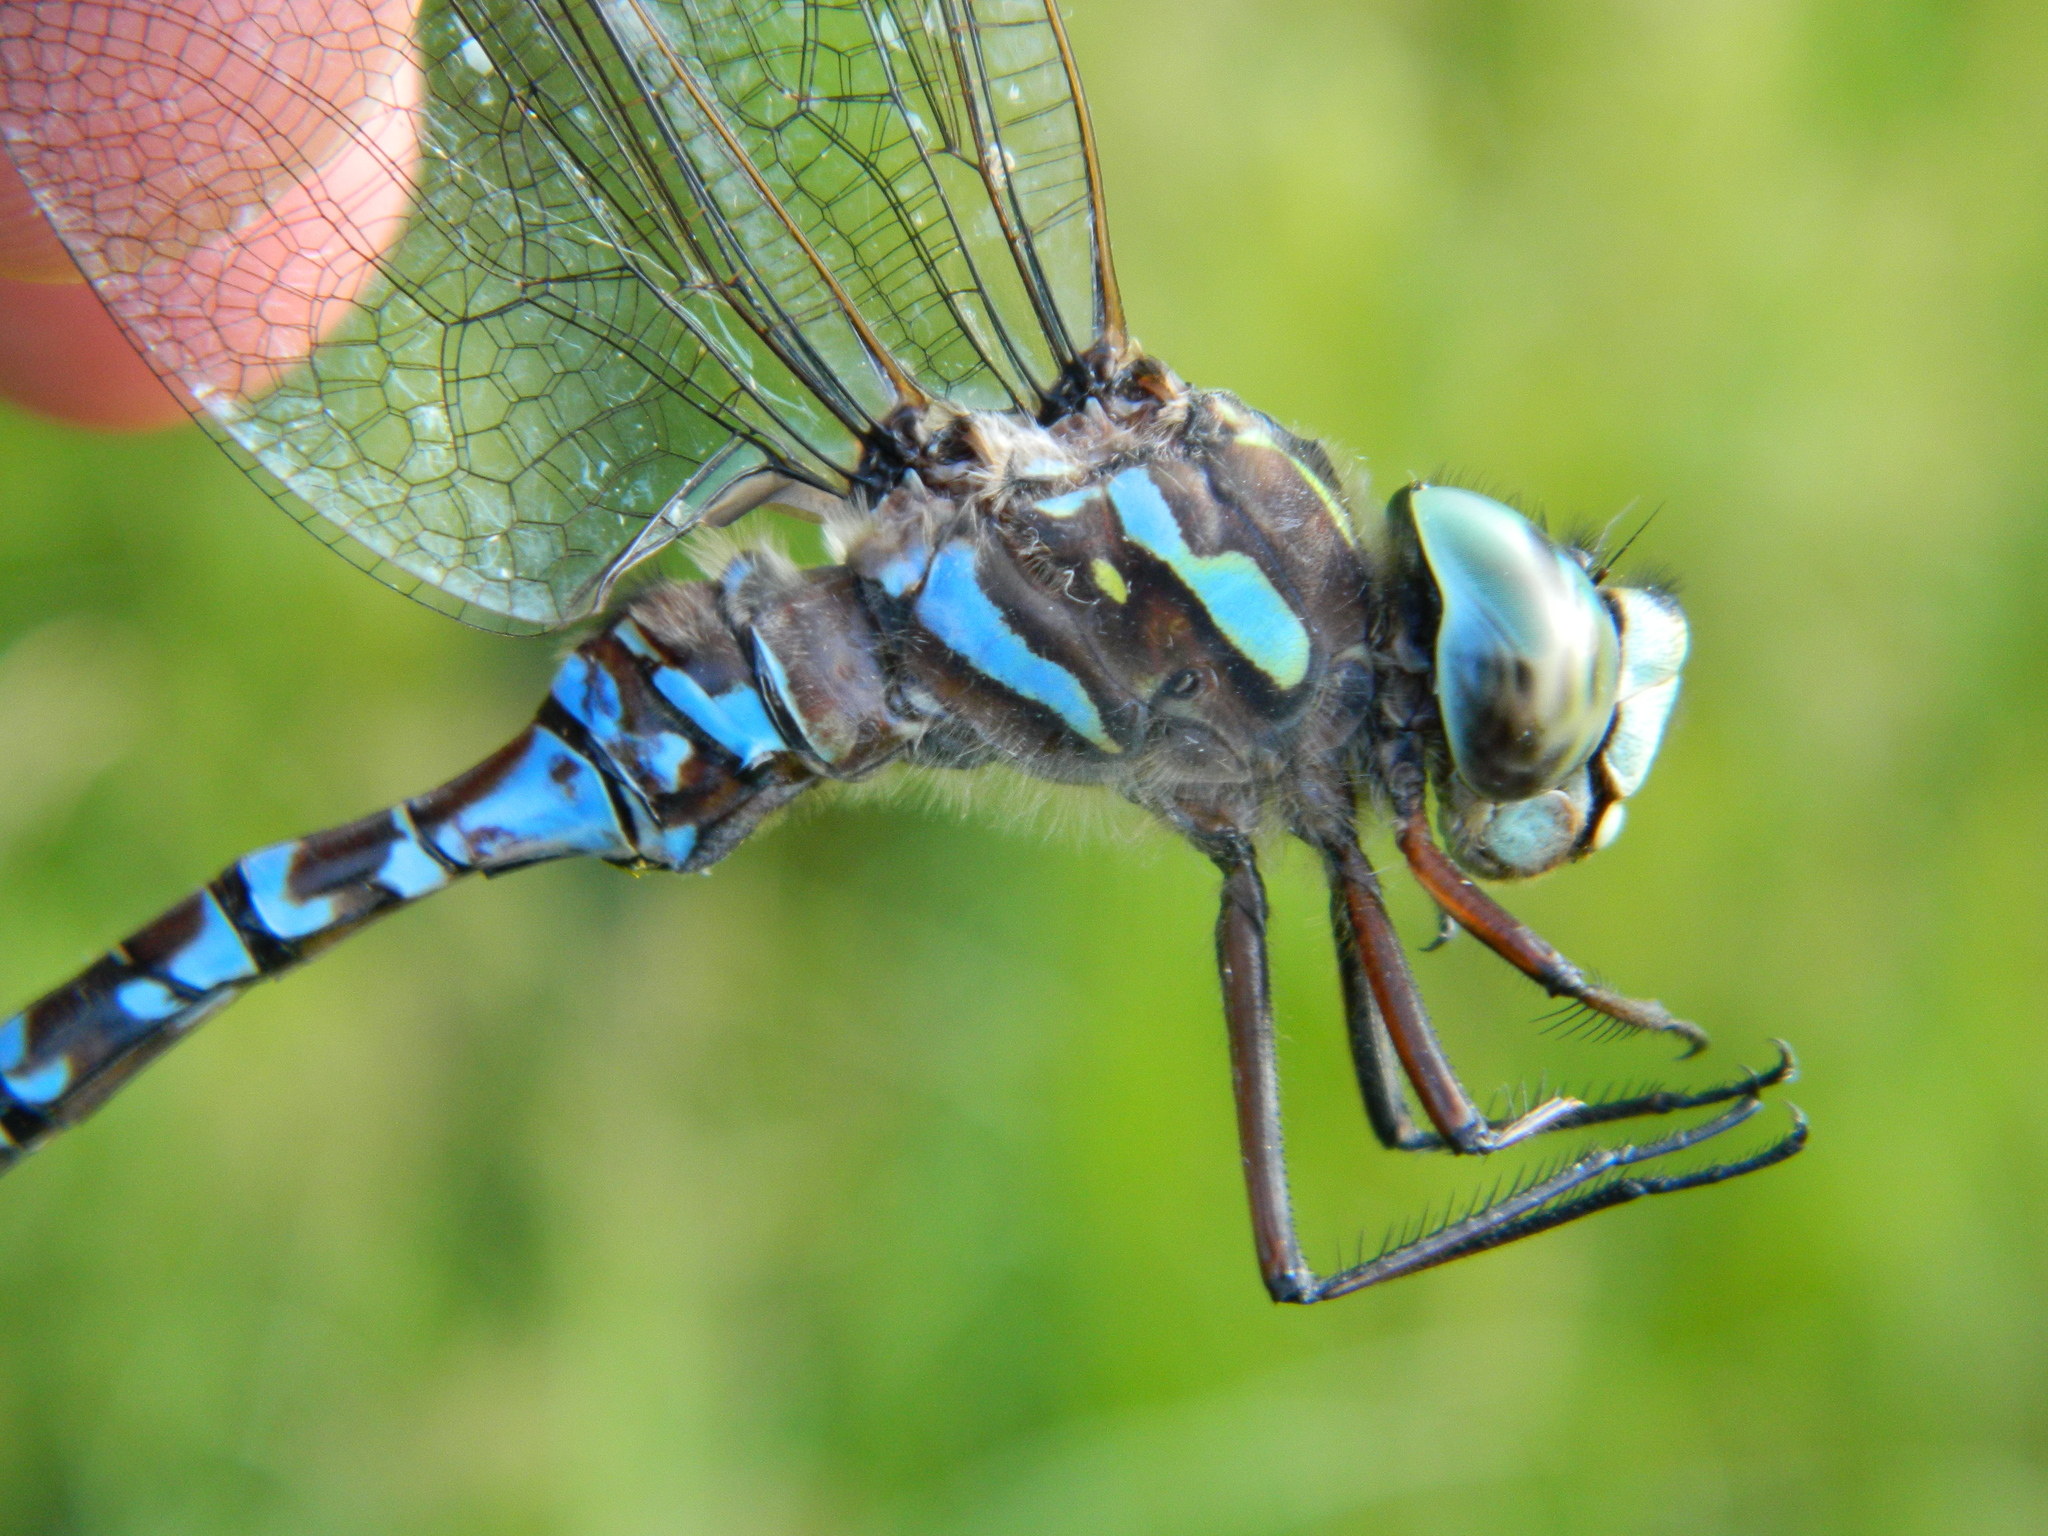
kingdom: Animalia
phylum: Arthropoda
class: Insecta
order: Odonata
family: Aeshnidae
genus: Aeshna
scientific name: Aeshna canadensis
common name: Canada darner
